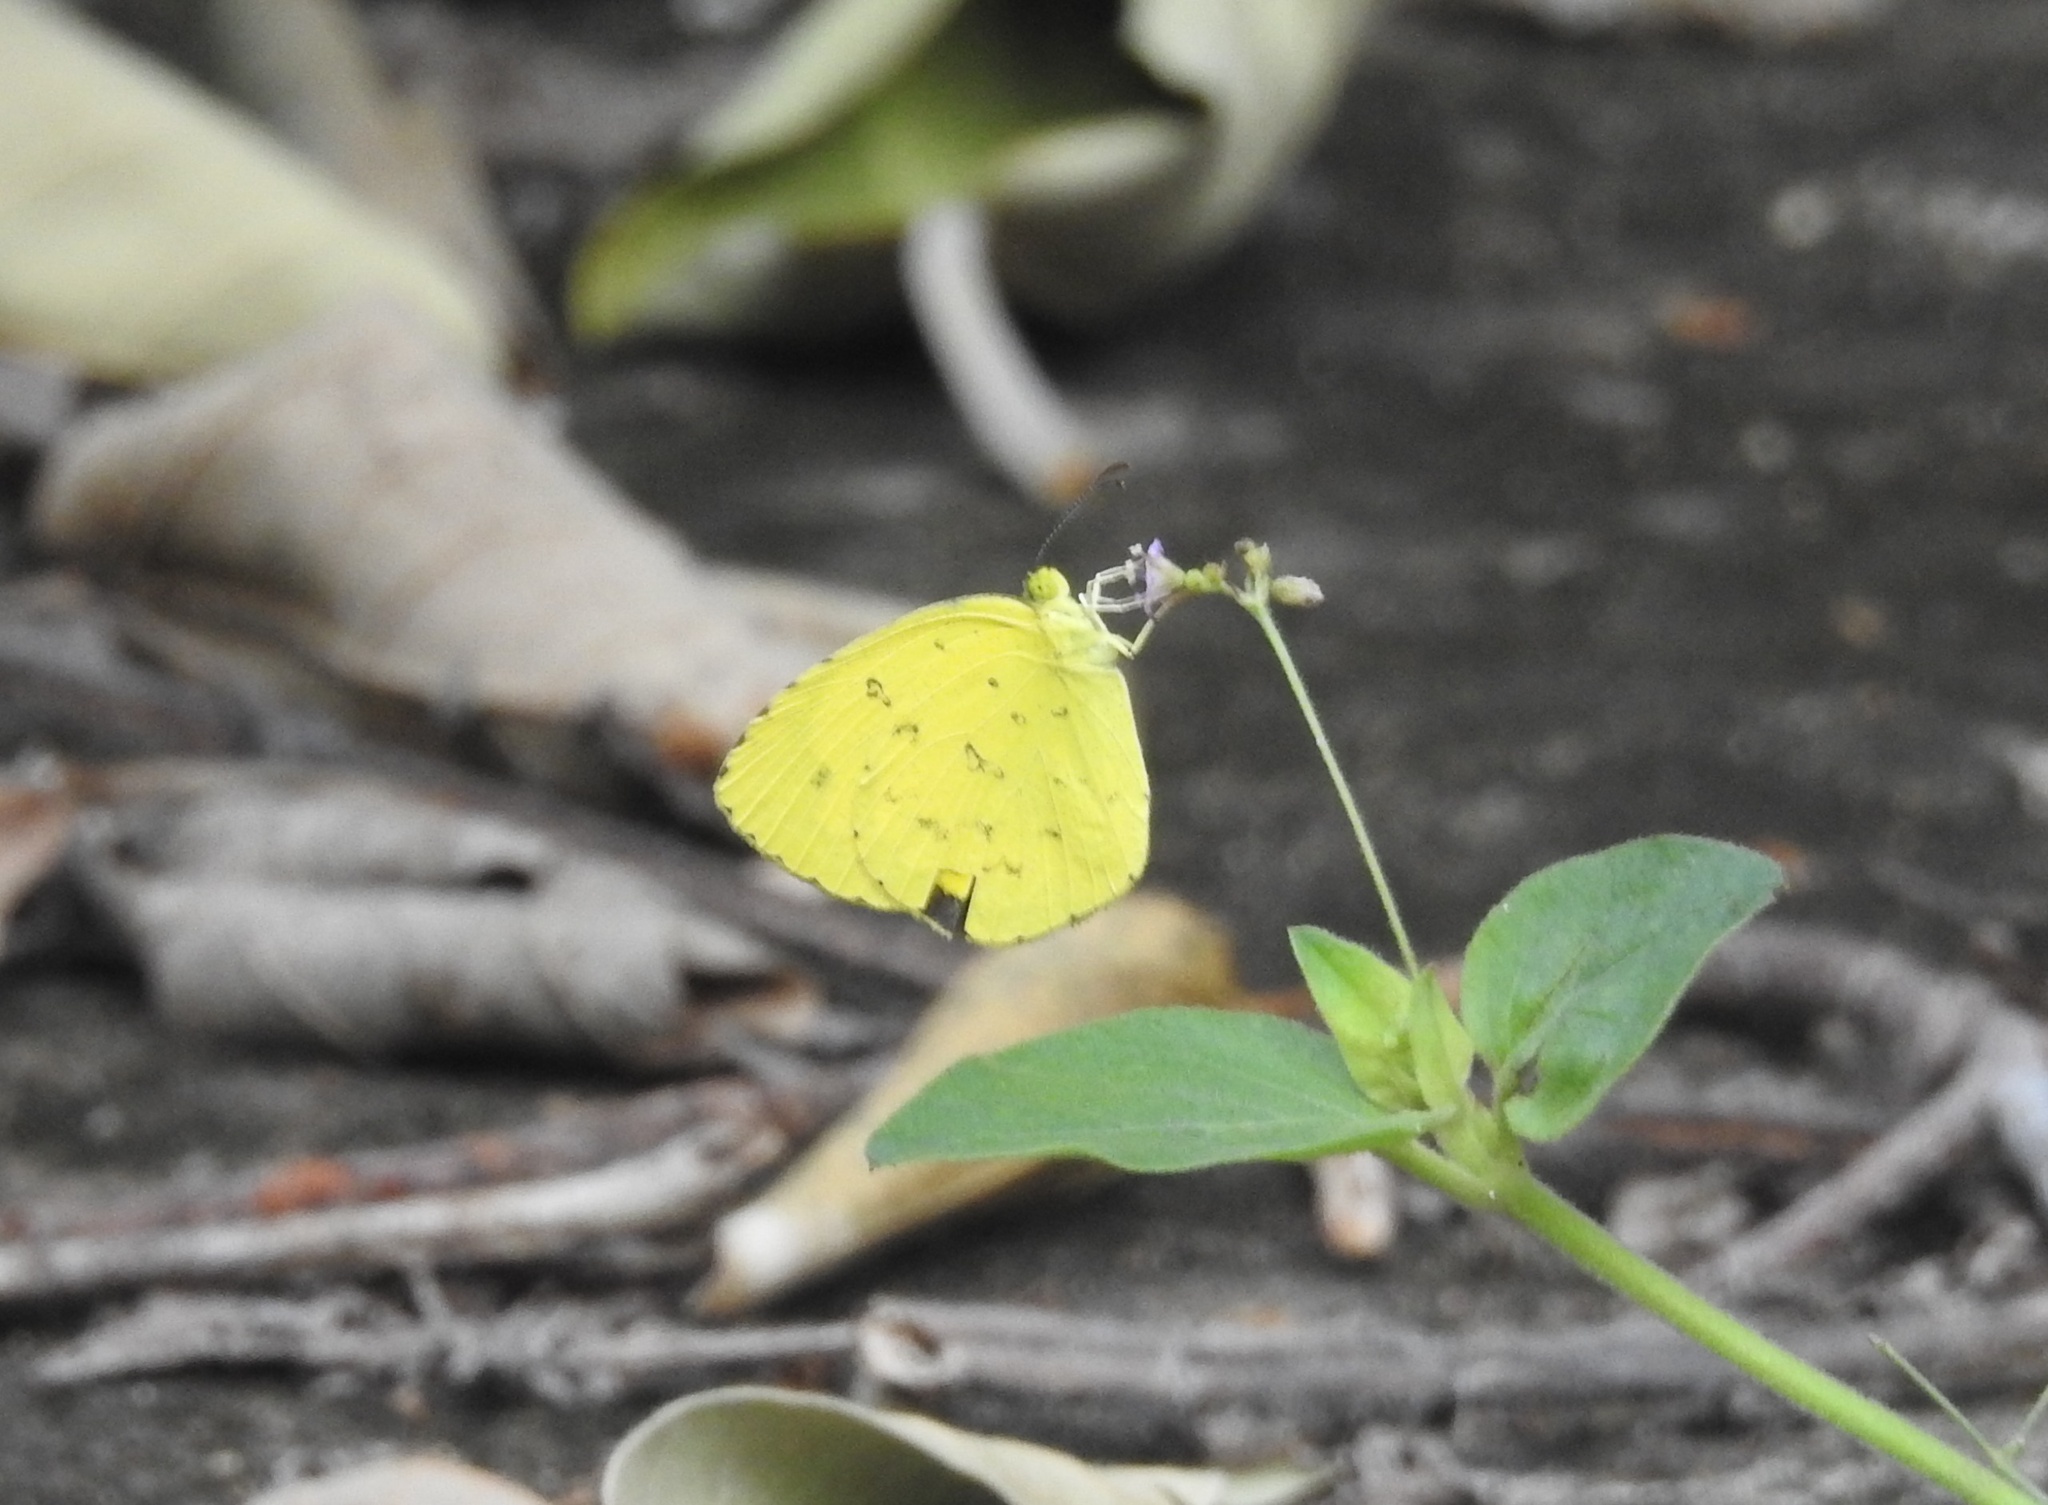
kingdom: Animalia
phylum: Arthropoda
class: Insecta
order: Lepidoptera
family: Pieridae
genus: Eurema
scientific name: Eurema hecabe
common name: Pale grass yellow
